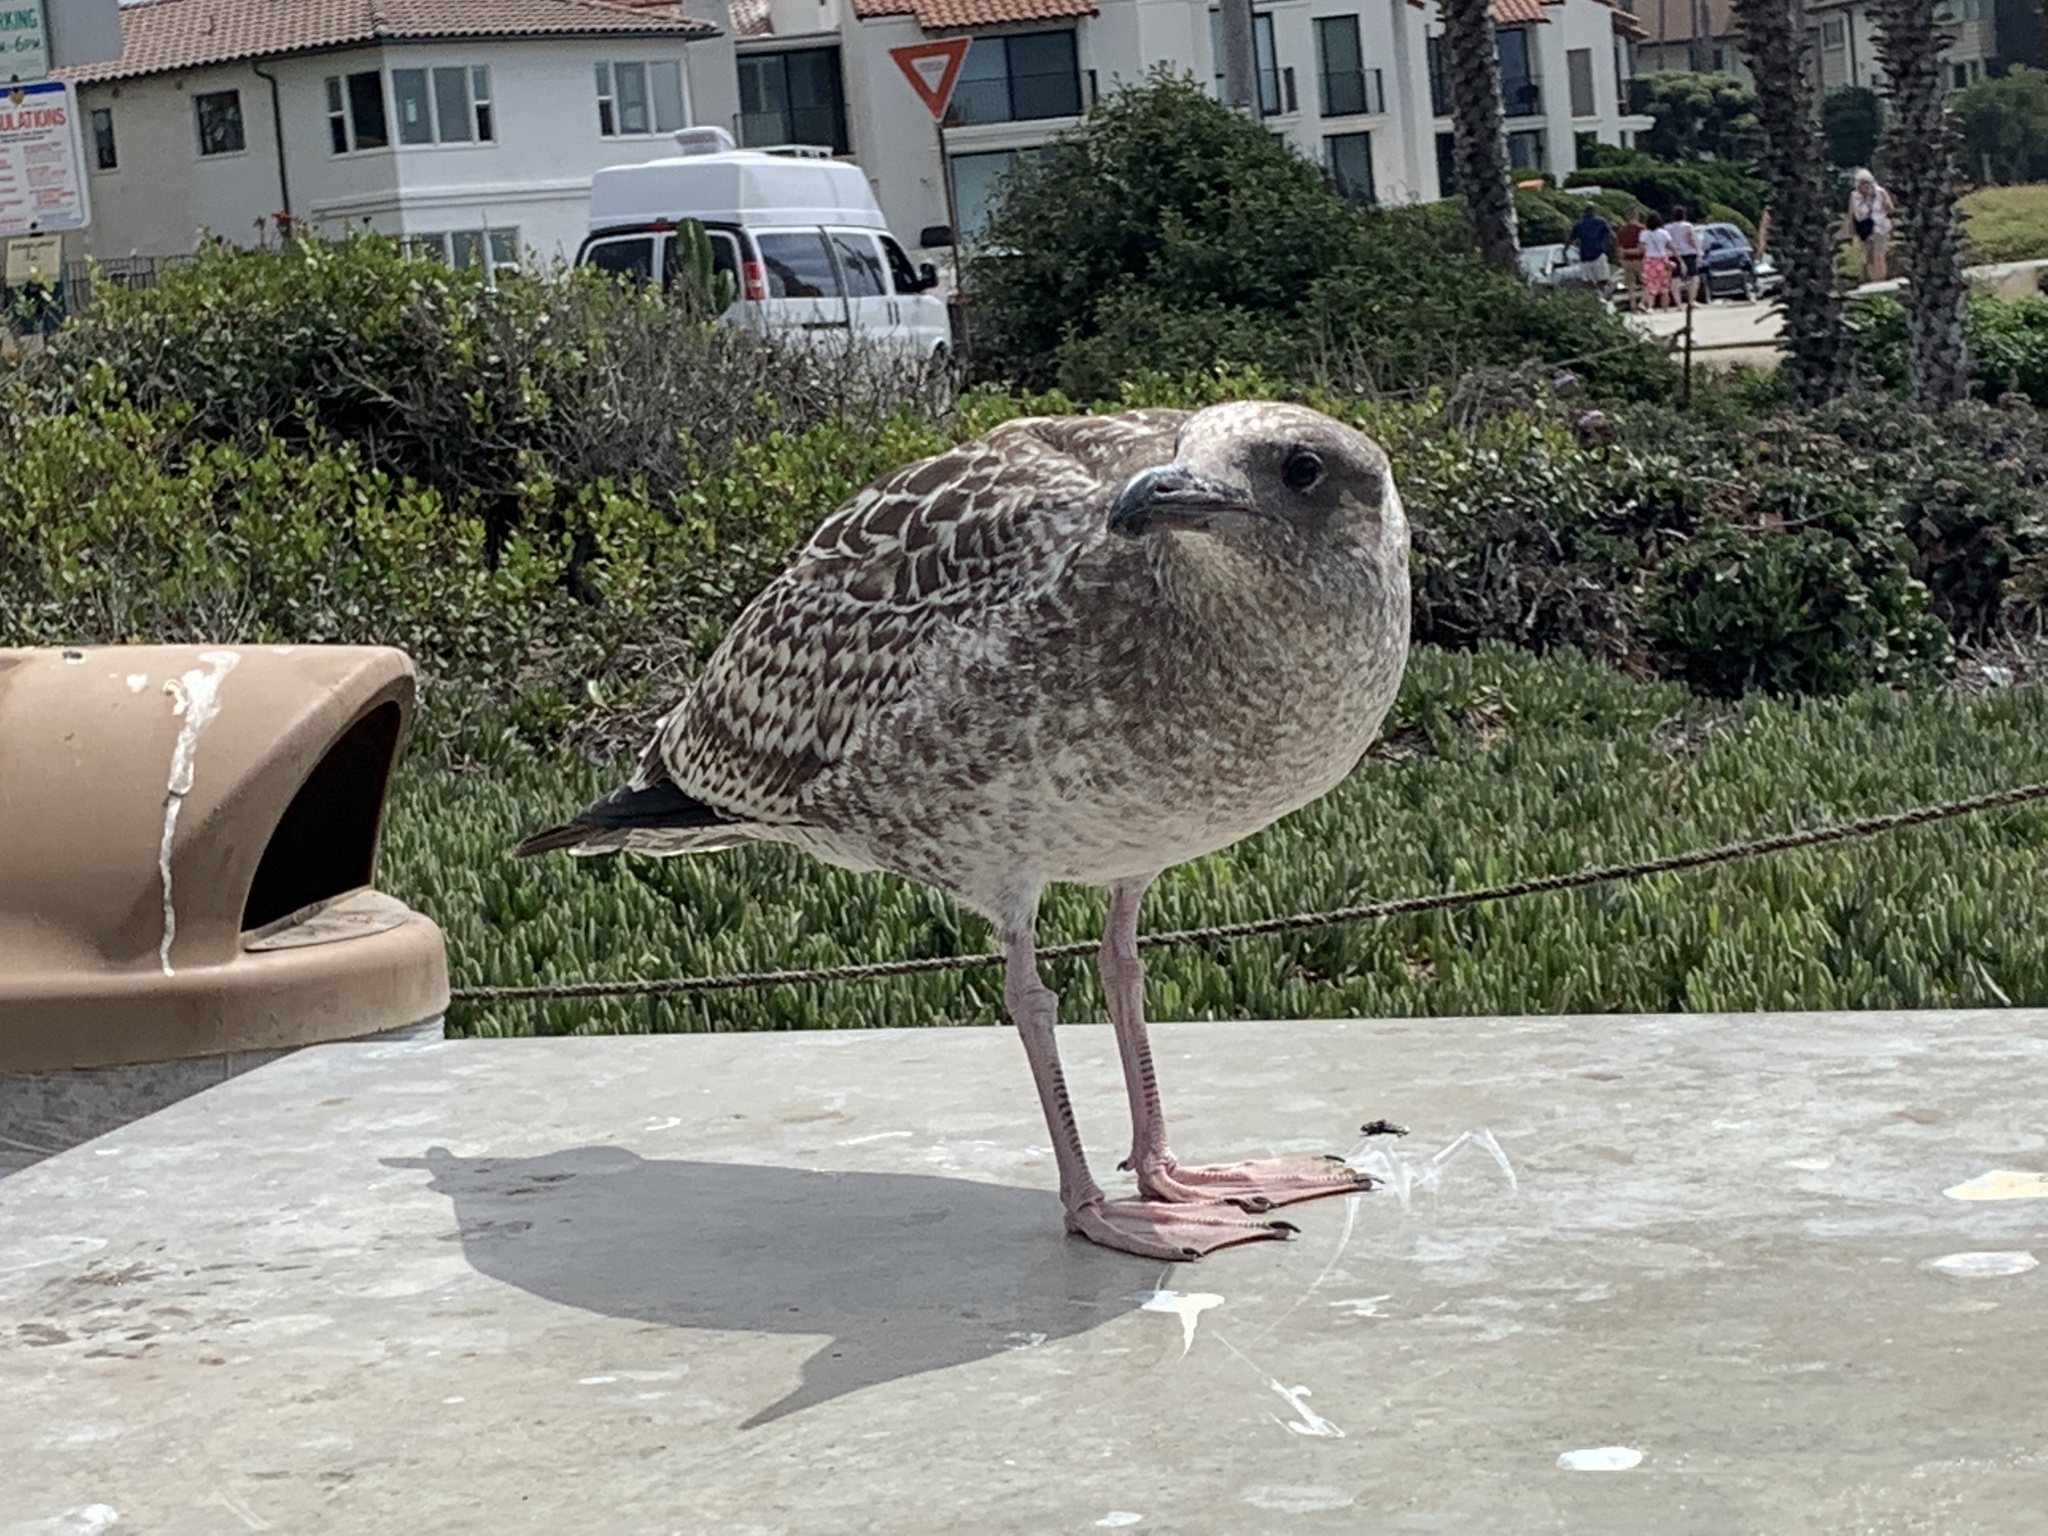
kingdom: Animalia
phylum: Chordata
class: Aves
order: Charadriiformes
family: Laridae
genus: Larus
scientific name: Larus occidentalis
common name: Western gull
